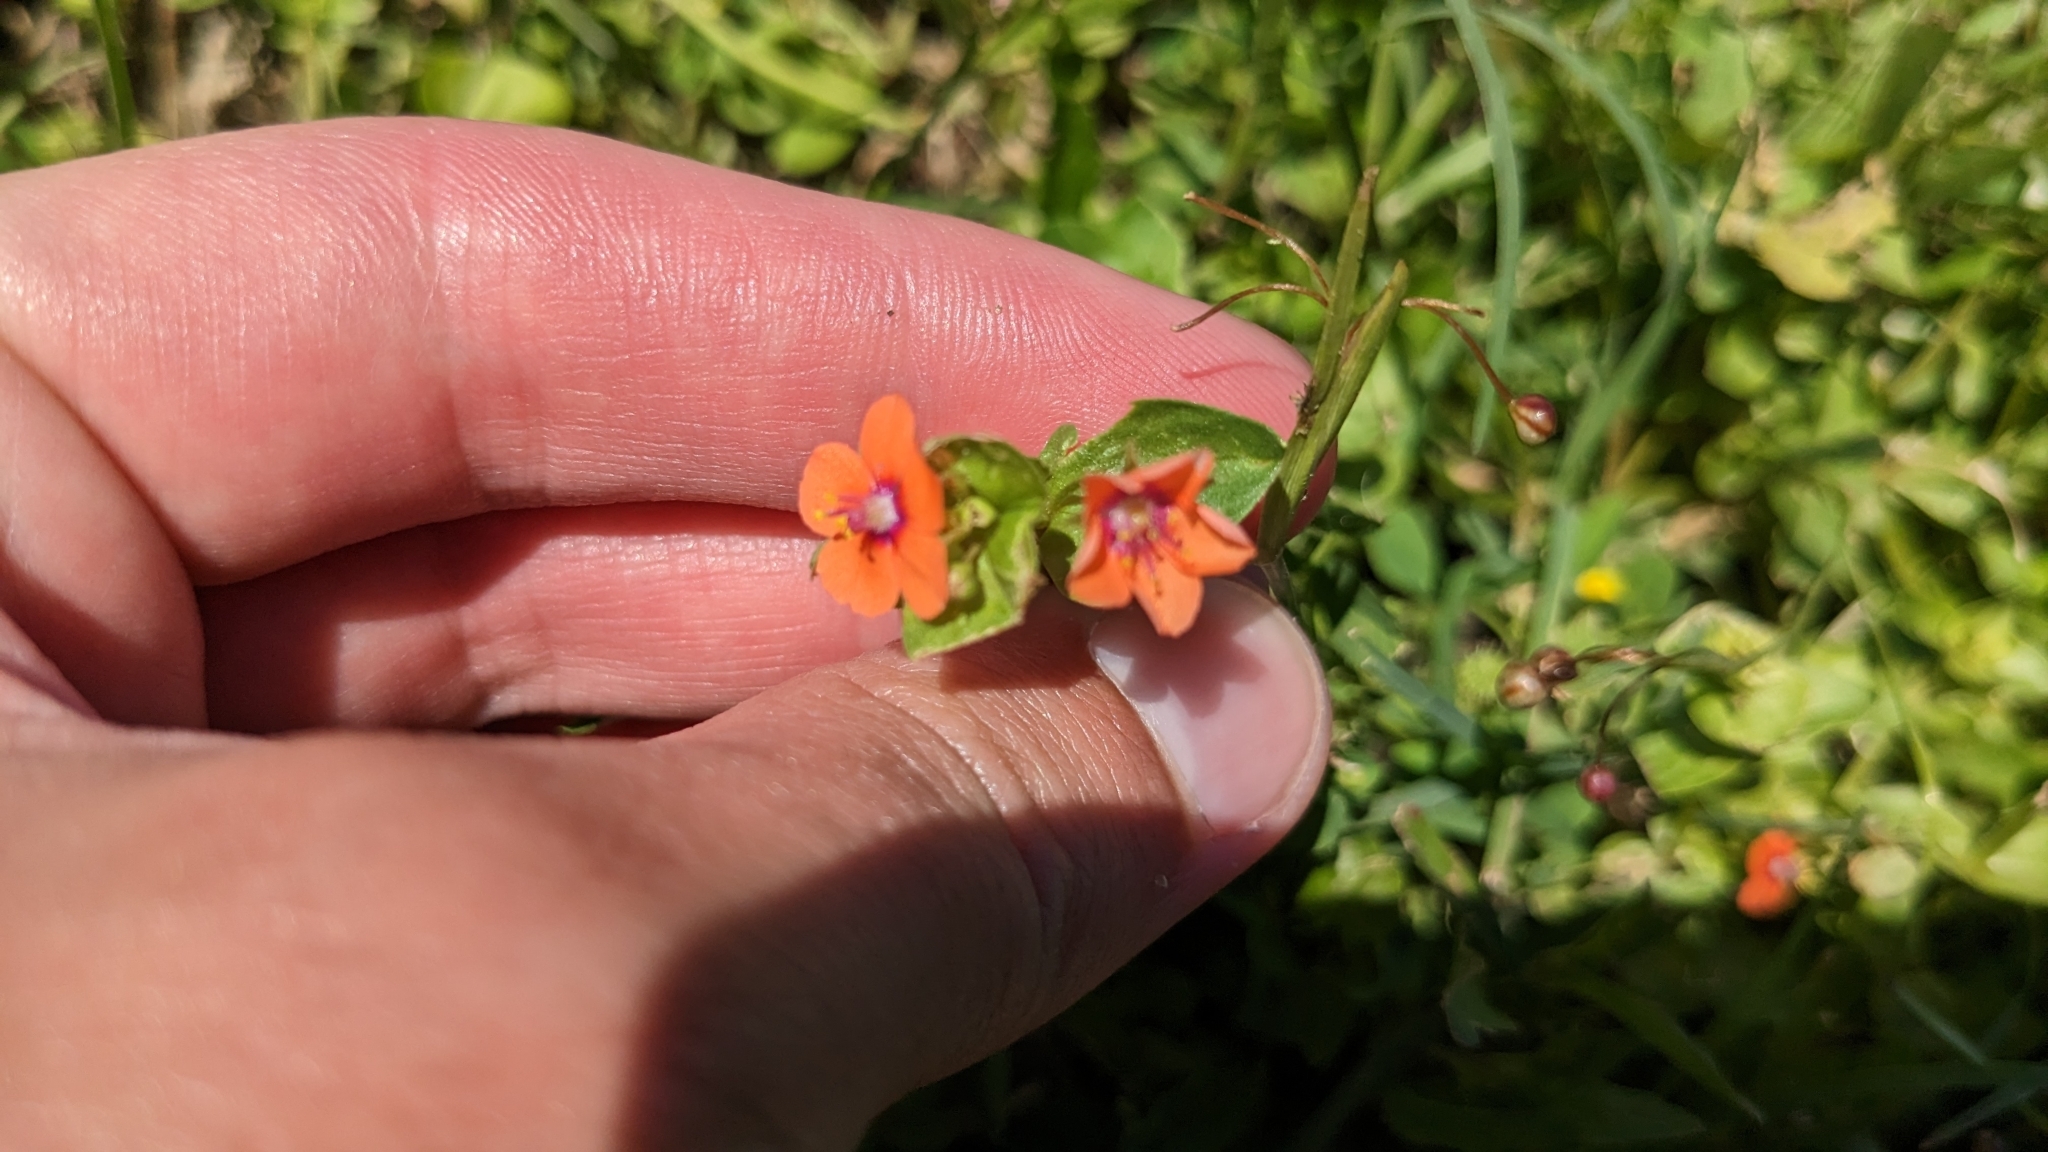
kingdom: Plantae
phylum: Tracheophyta
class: Magnoliopsida
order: Ericales
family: Primulaceae
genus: Lysimachia
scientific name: Lysimachia arvensis
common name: Scarlet pimpernel
